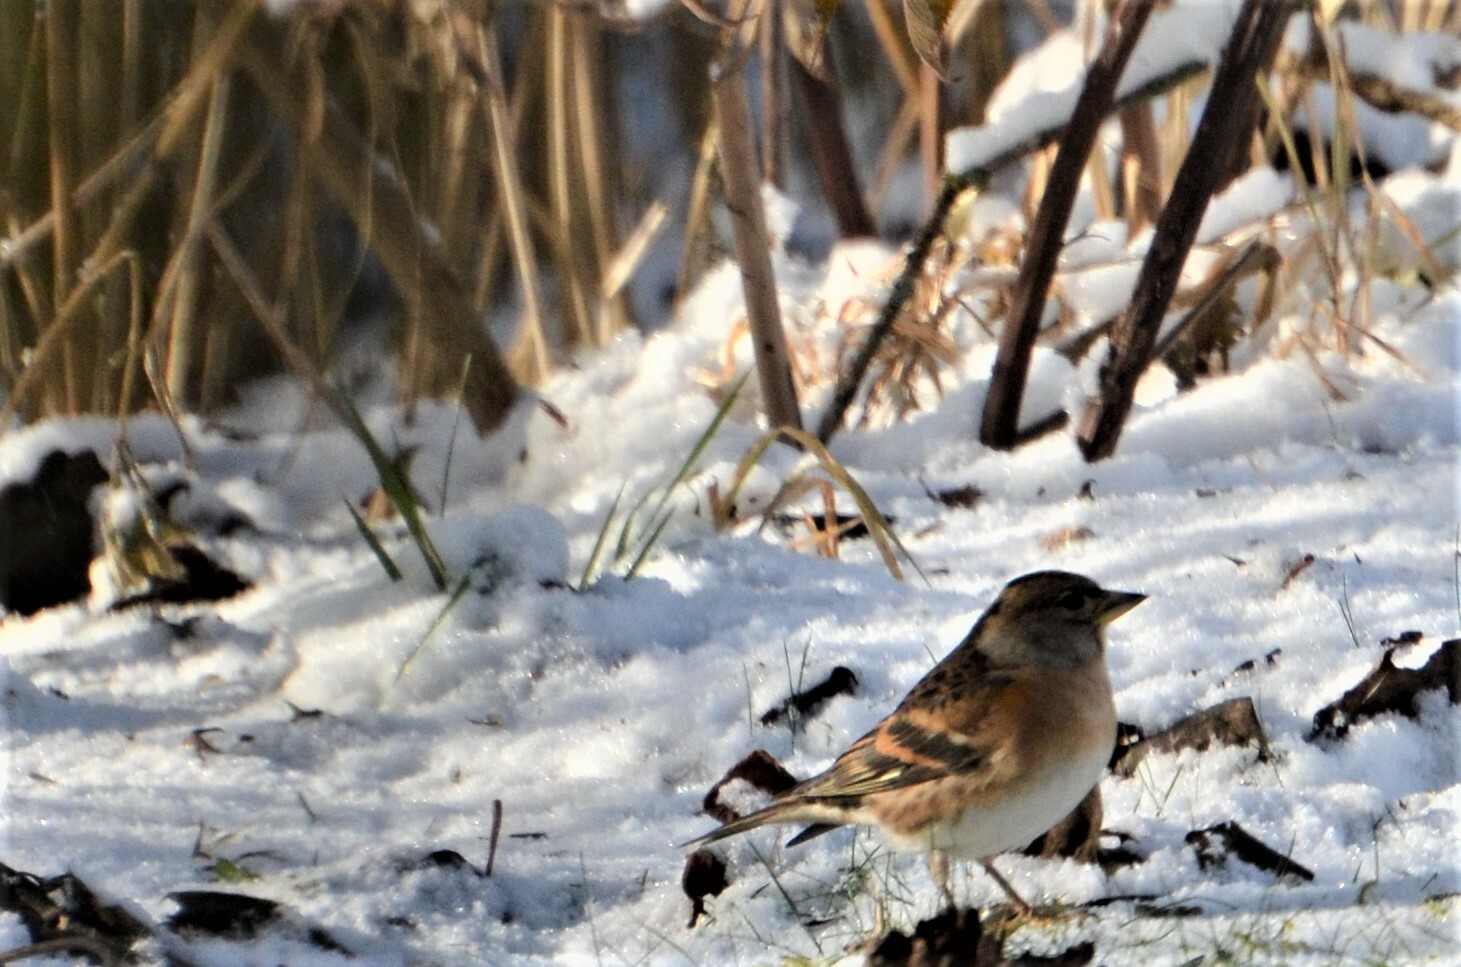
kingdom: Animalia
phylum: Chordata
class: Aves
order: Passeriformes
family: Fringillidae
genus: Fringilla
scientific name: Fringilla montifringilla
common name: Brambling
